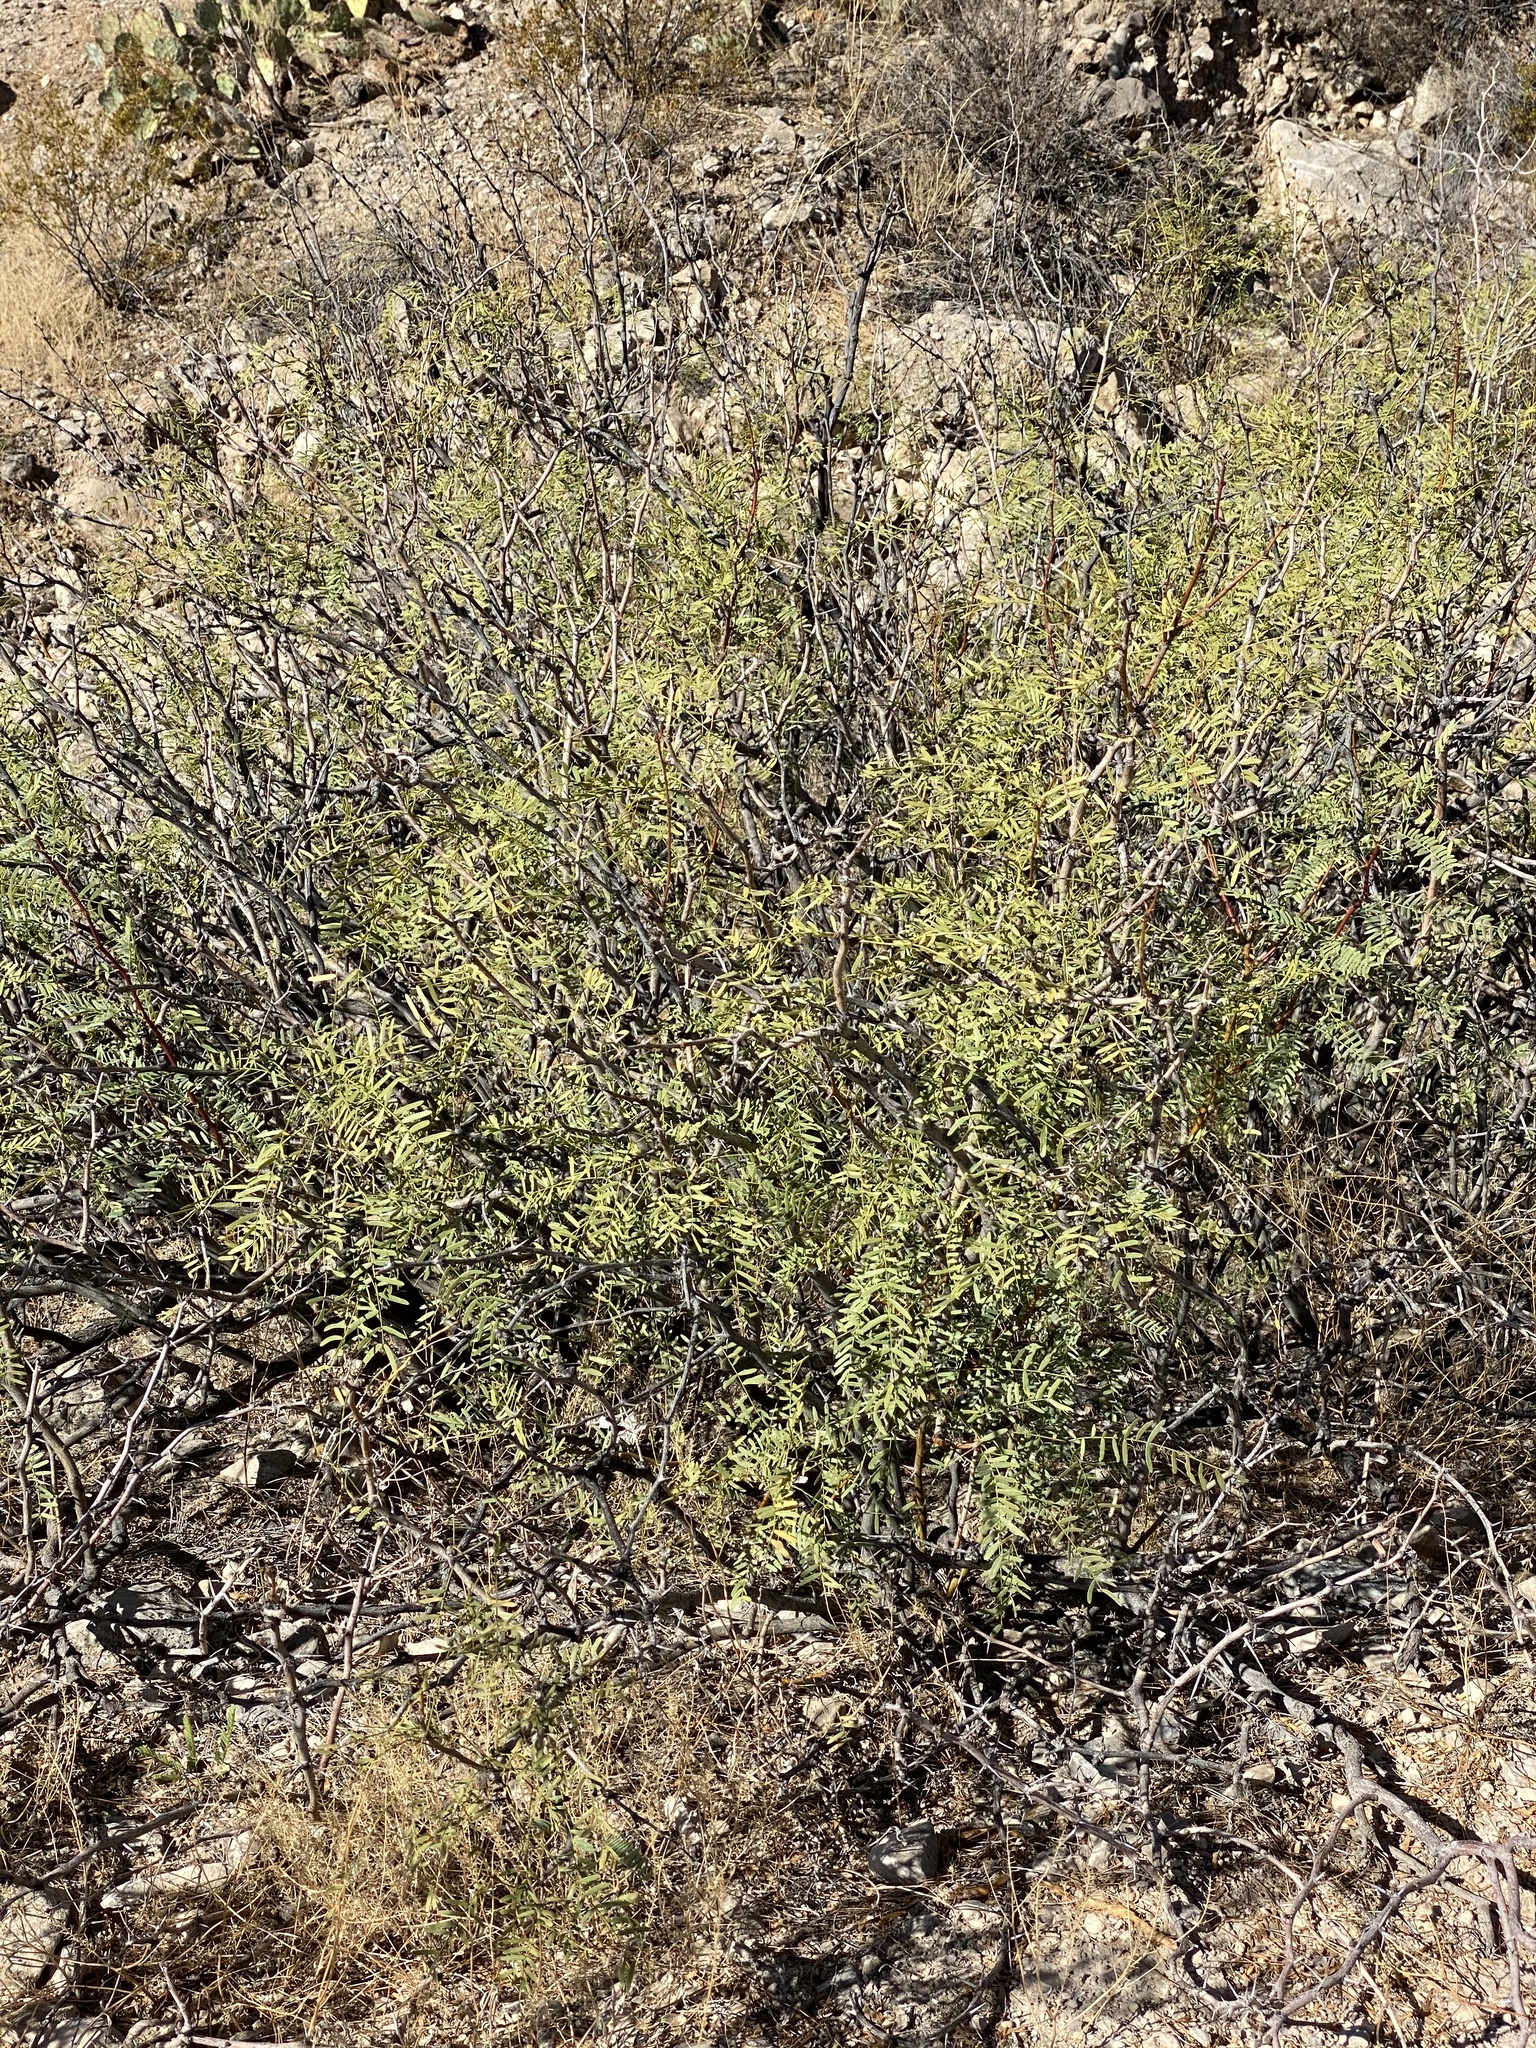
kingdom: Plantae
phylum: Tracheophyta
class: Magnoliopsida
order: Fabales
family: Fabaceae
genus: Prosopis
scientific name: Prosopis glandulosa
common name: Honey mesquite
